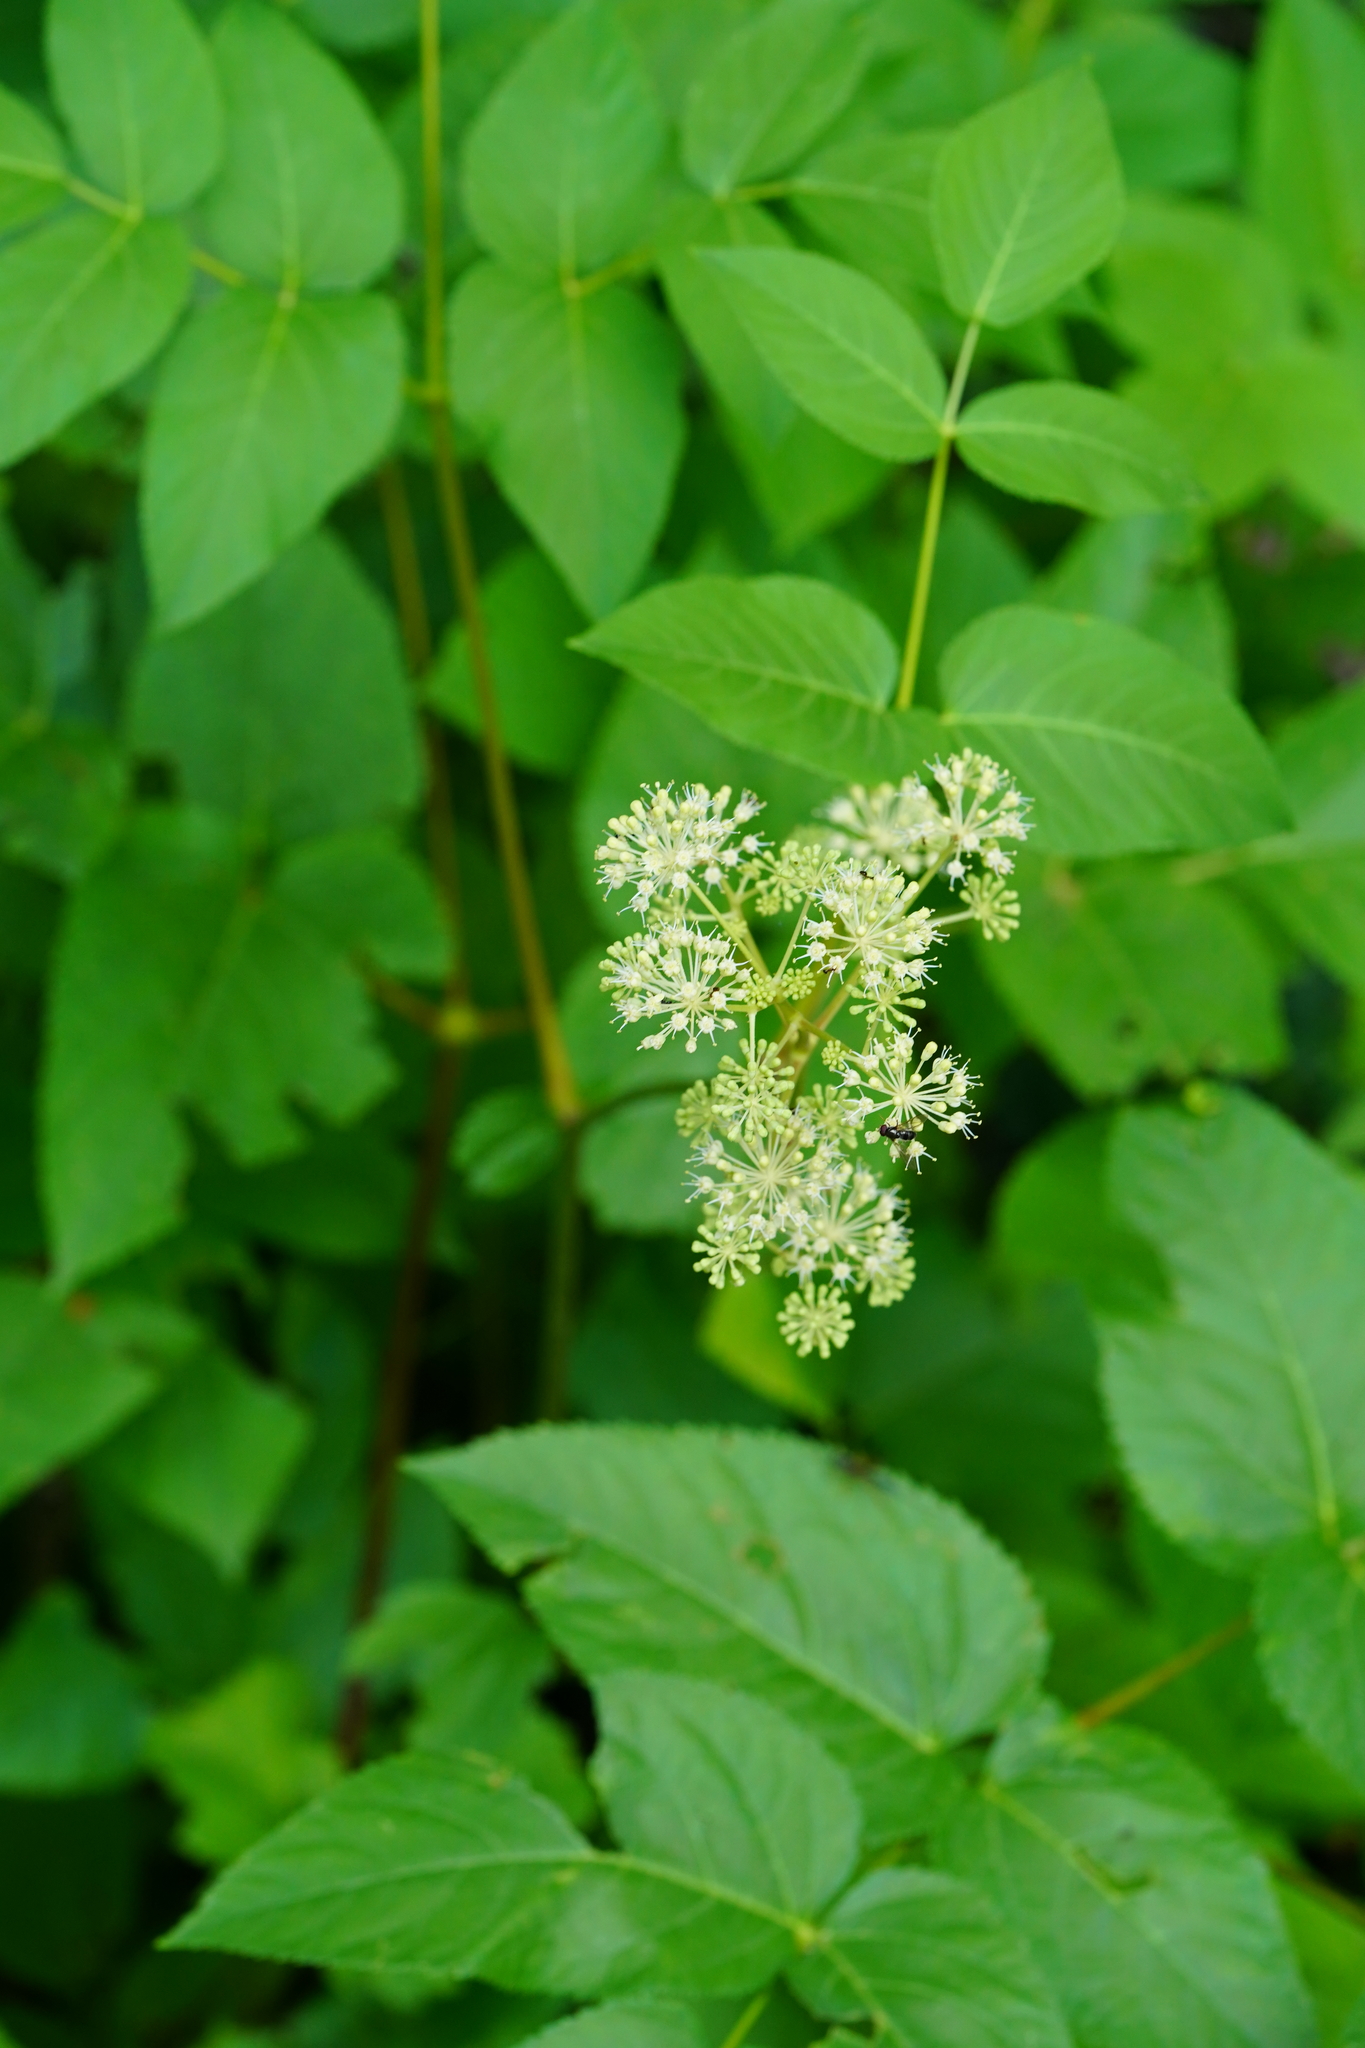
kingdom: Plantae
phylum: Tracheophyta
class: Magnoliopsida
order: Apiales
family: Araliaceae
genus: Aralia
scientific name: Aralia californica
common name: California-ginseng
